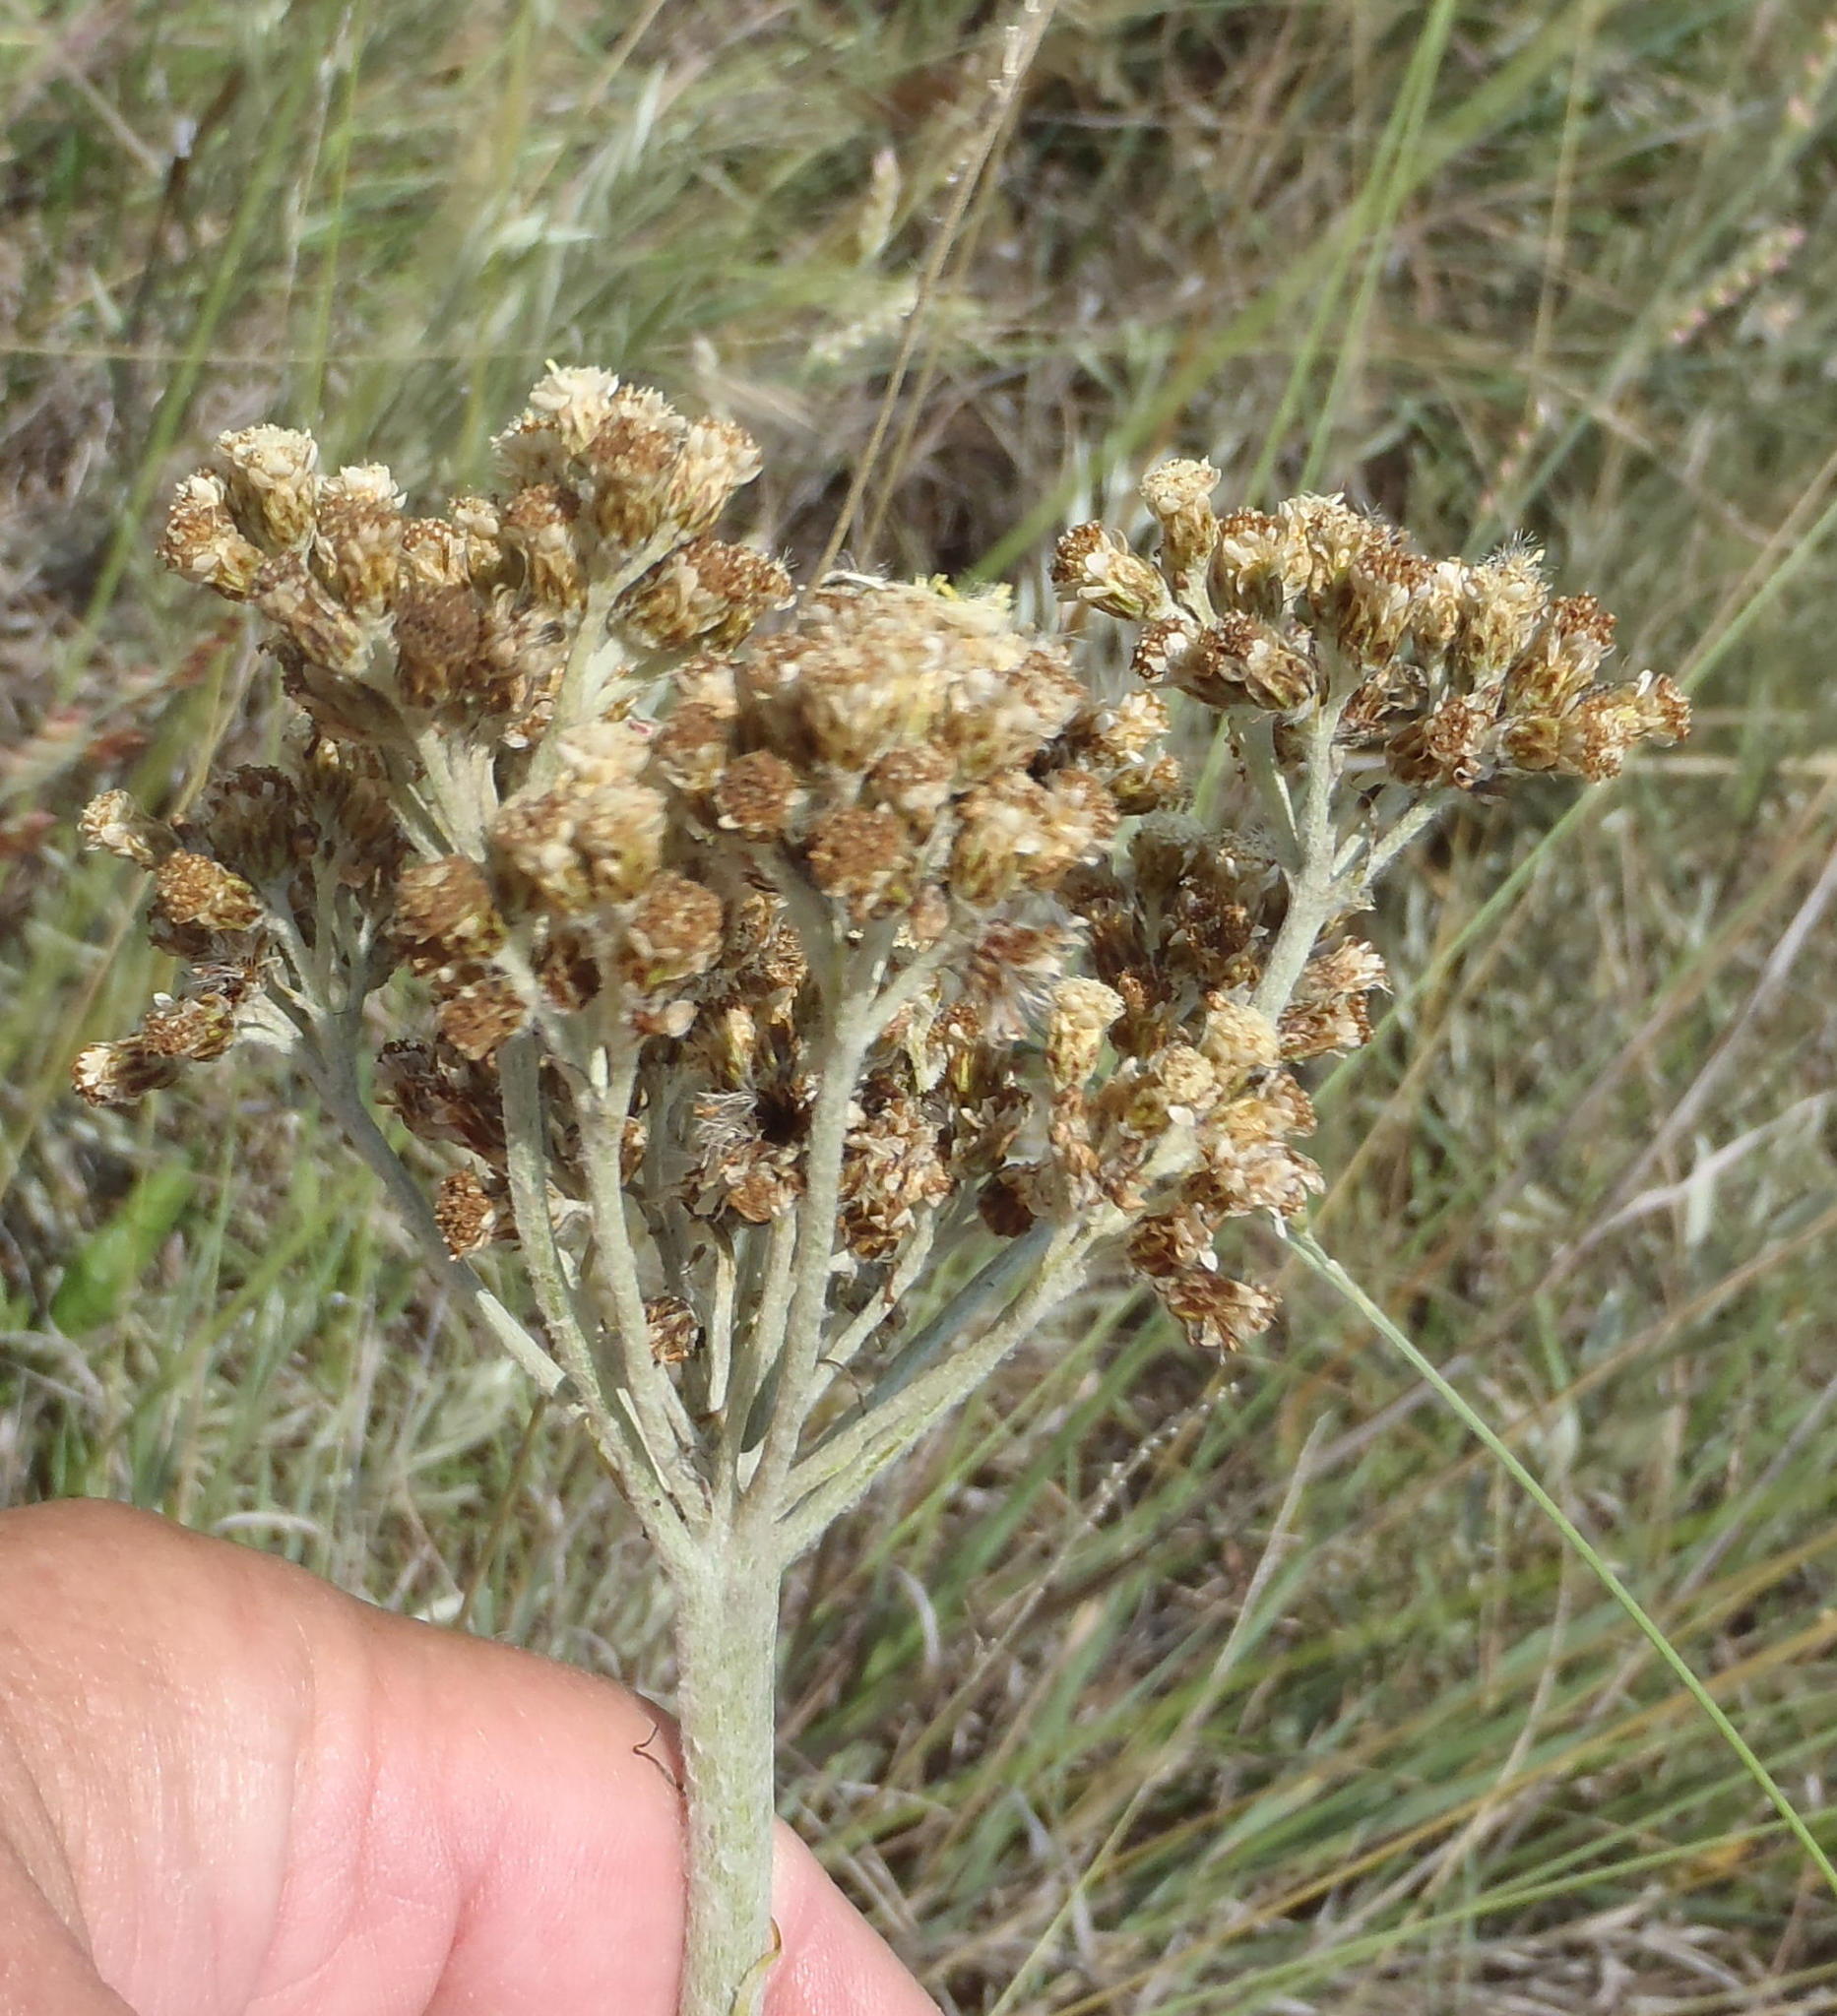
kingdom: Plantae
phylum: Tracheophyta
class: Magnoliopsida
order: Asterales
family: Asteraceae
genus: Helichrysum
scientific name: Helichrysum nudifolium
